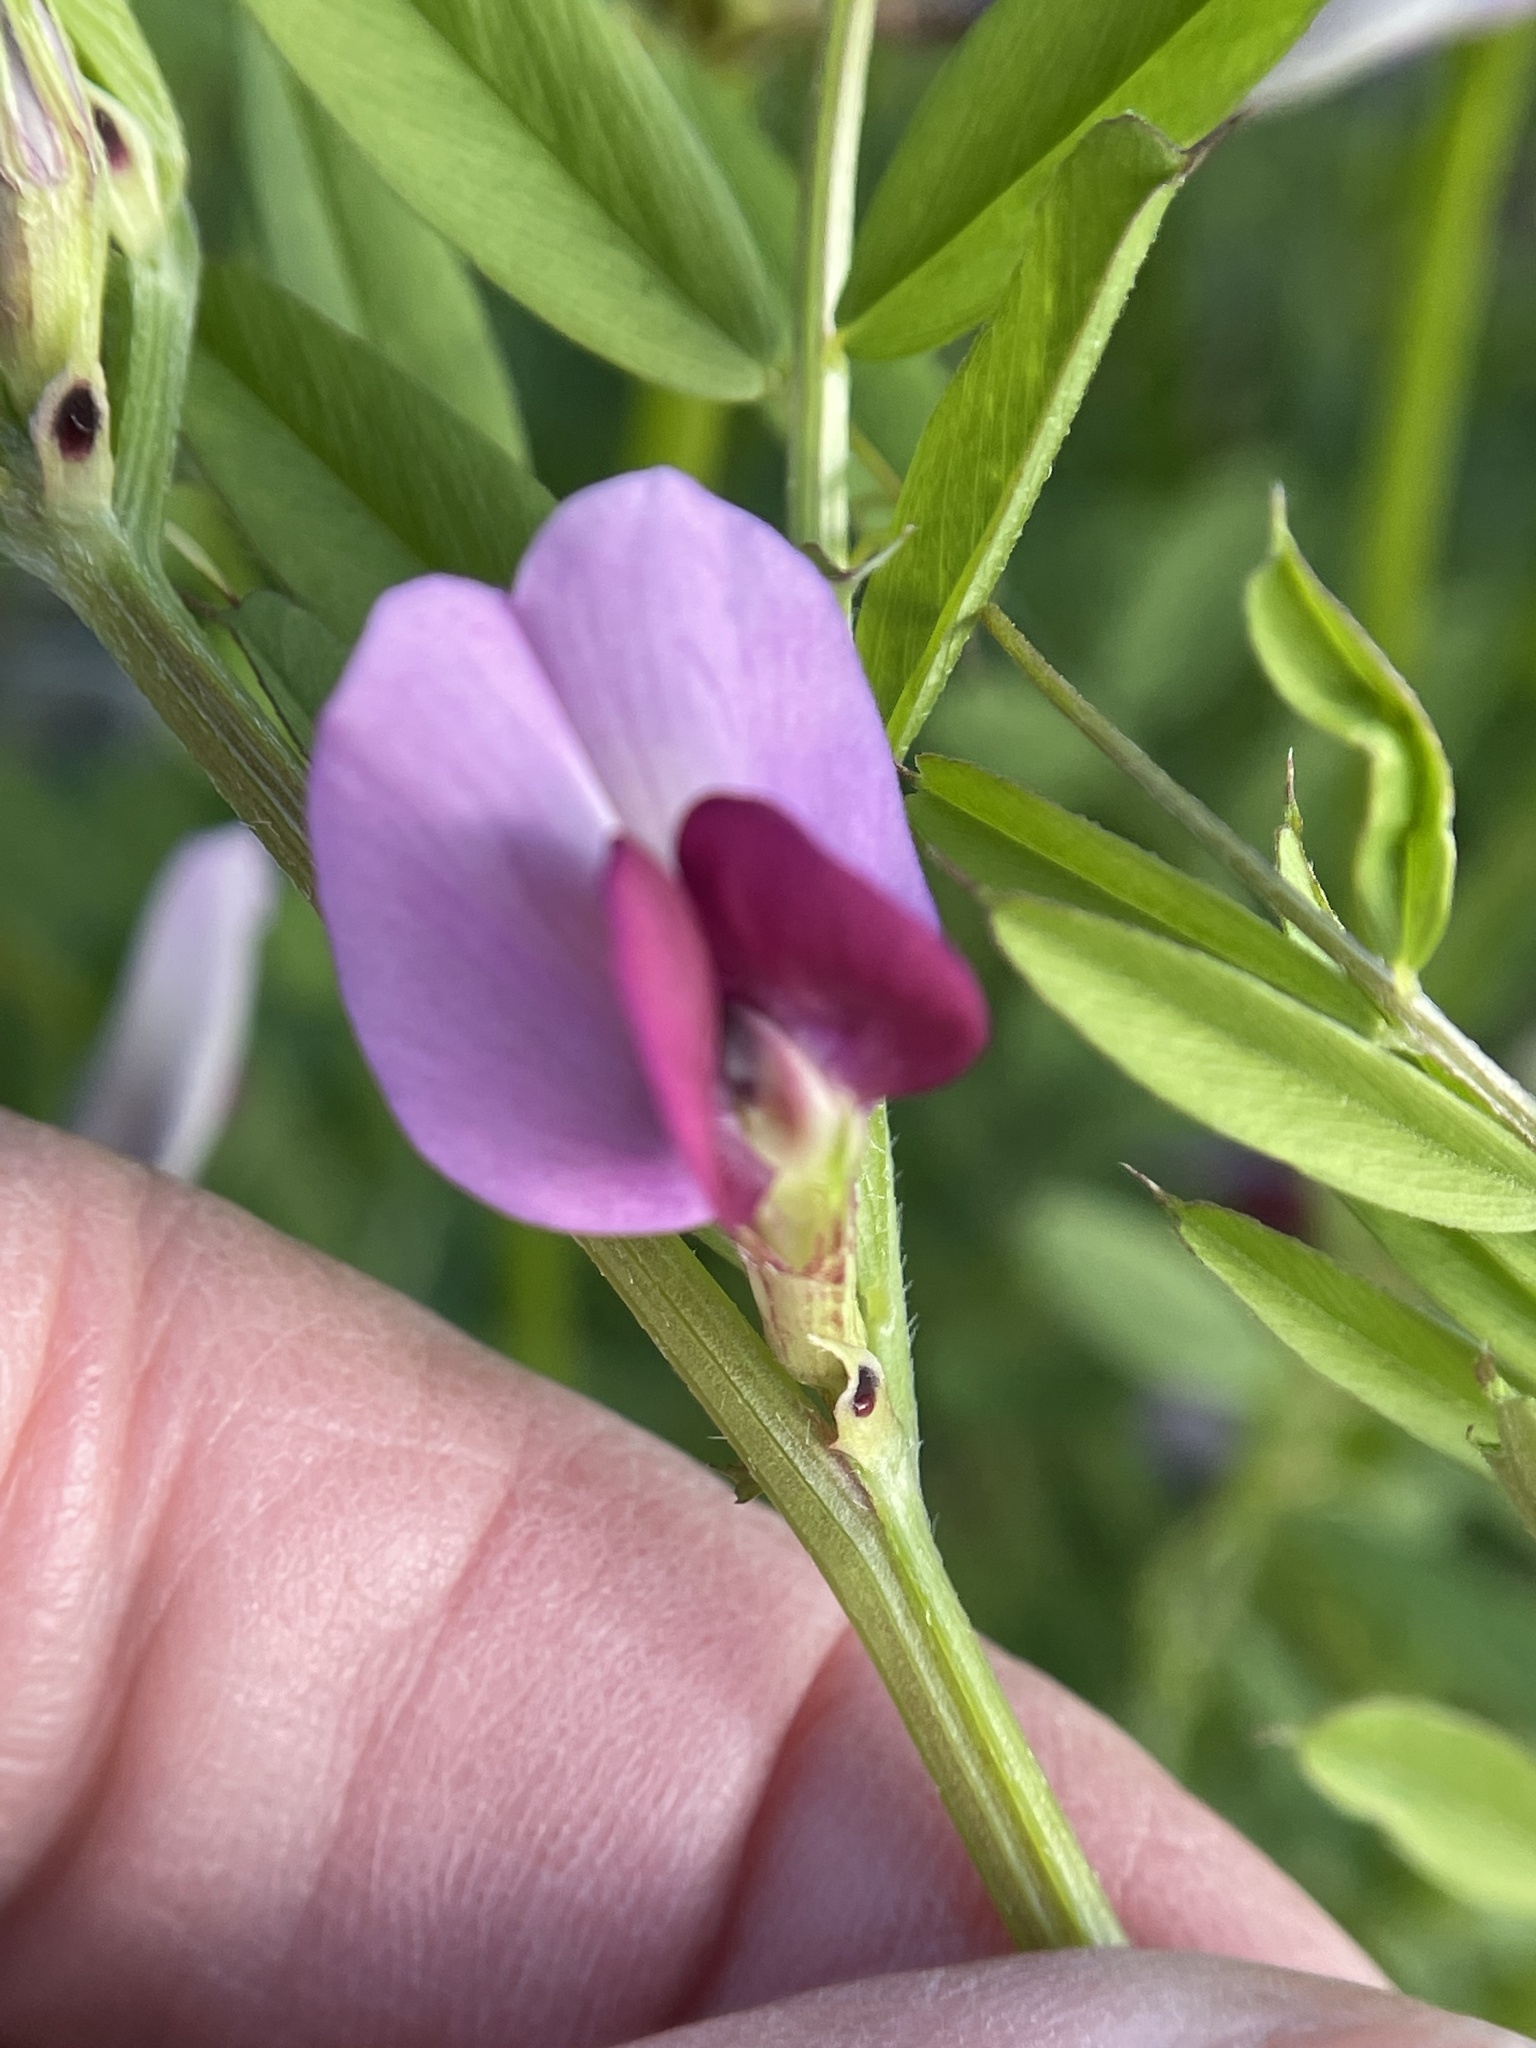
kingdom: Plantae
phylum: Tracheophyta
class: Magnoliopsida
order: Fabales
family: Fabaceae
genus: Vicia
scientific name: Vicia sativa
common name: Garden vetch
